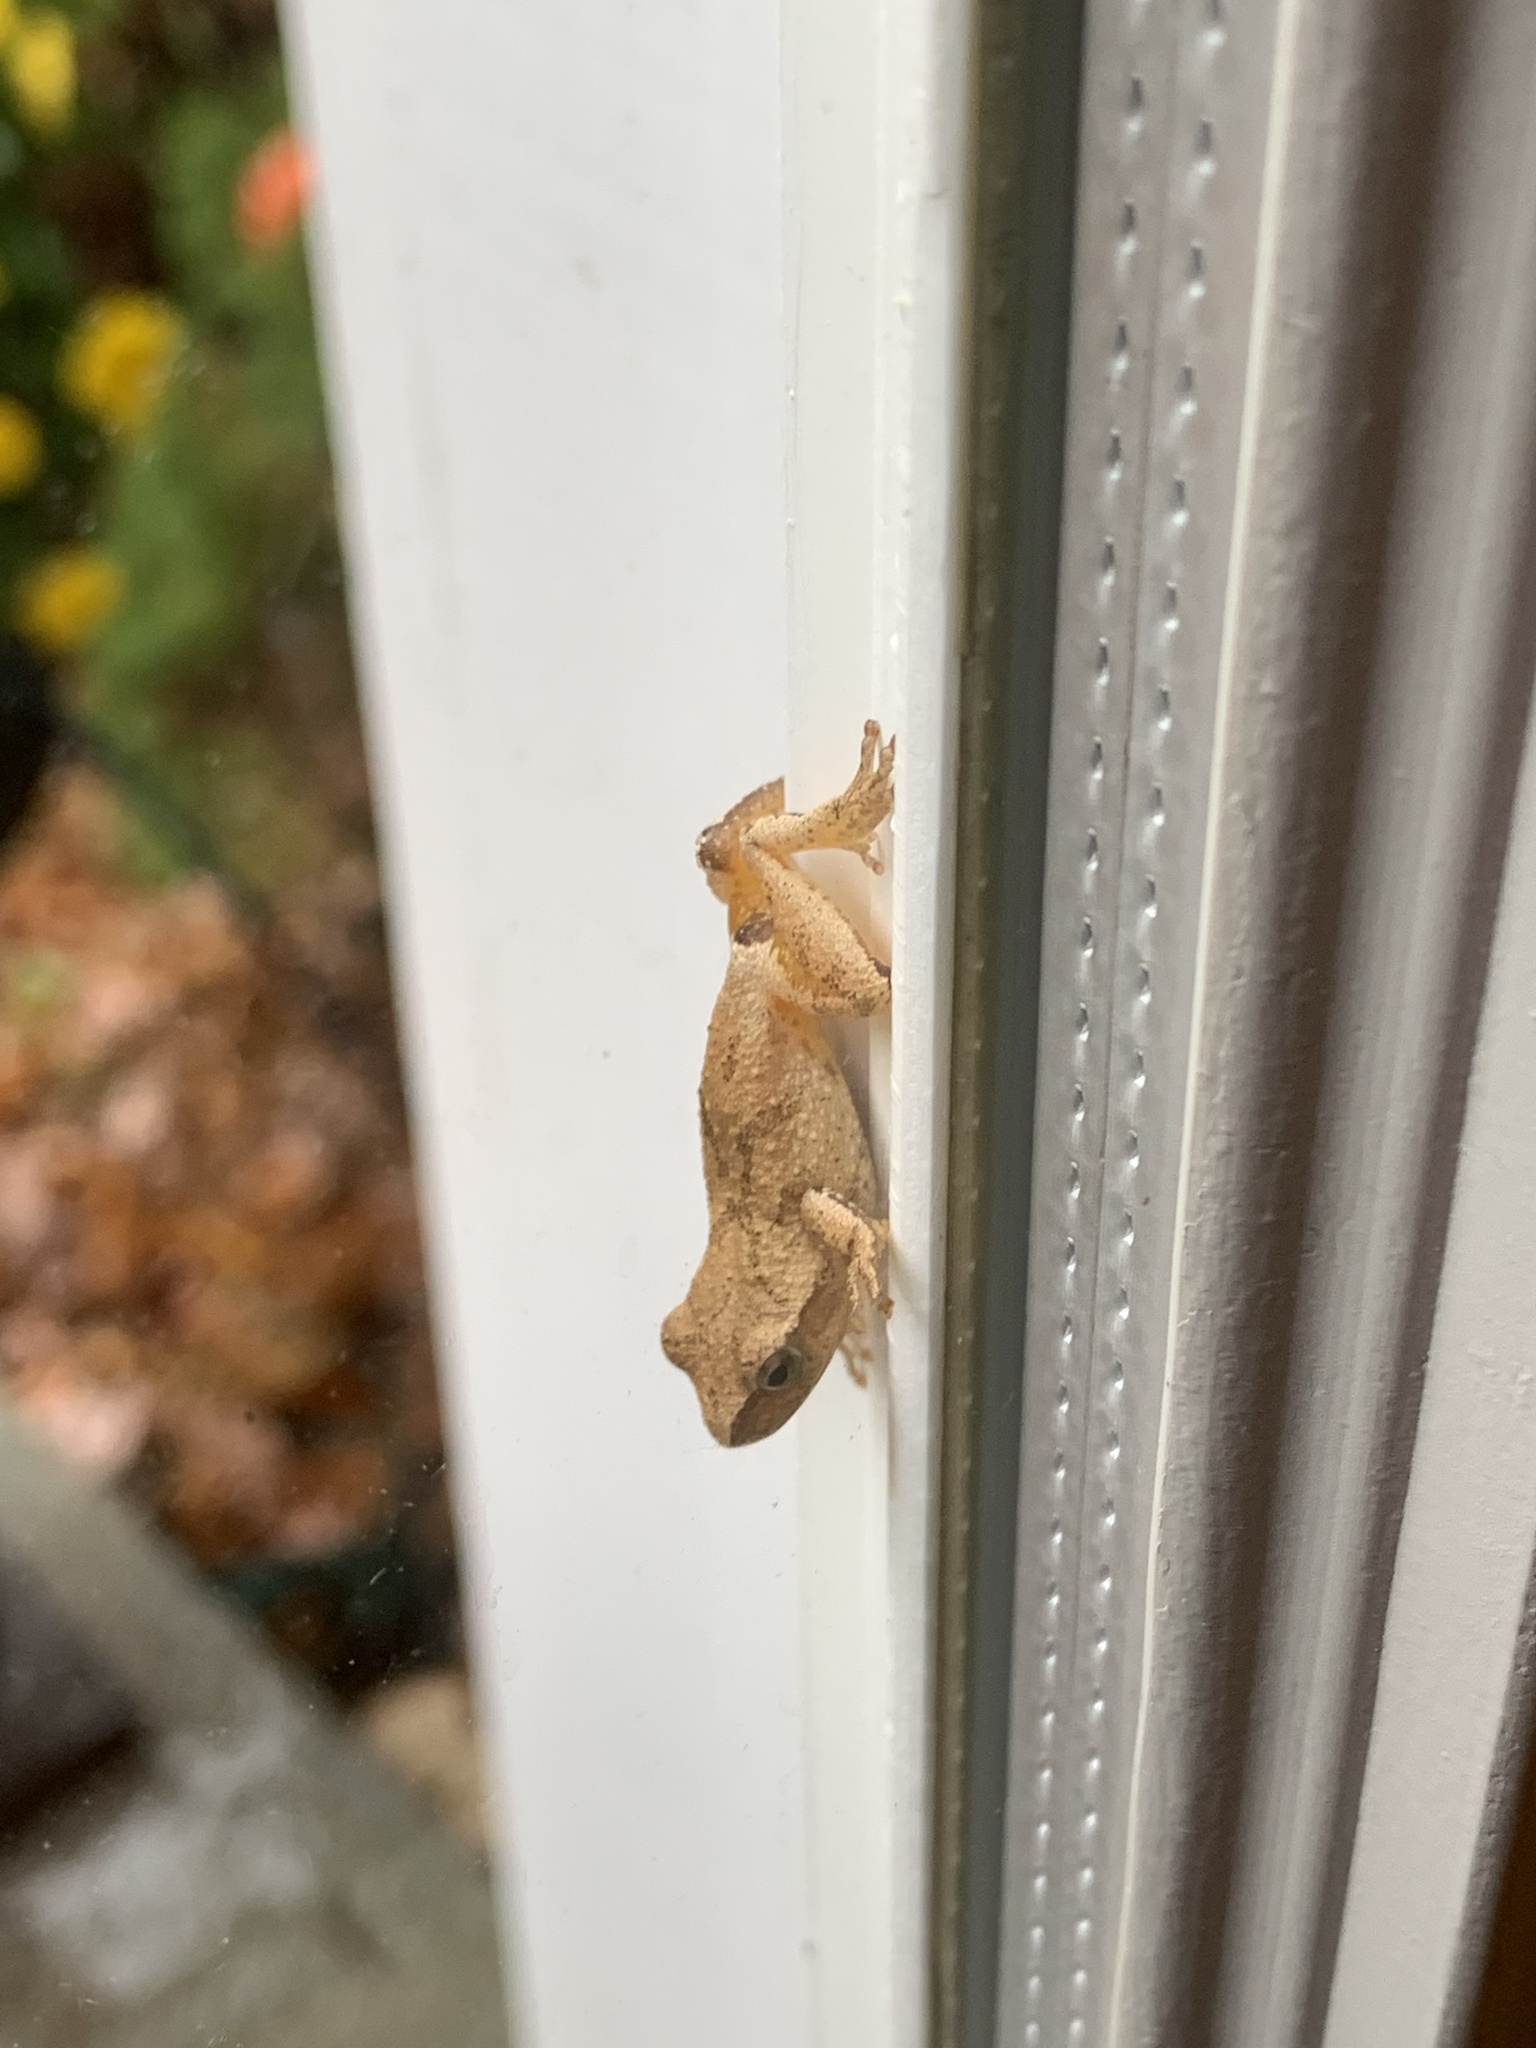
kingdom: Animalia
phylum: Chordata
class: Amphibia
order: Anura
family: Hylidae
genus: Pseudacris
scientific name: Pseudacris crucifer
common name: Spring peeper
